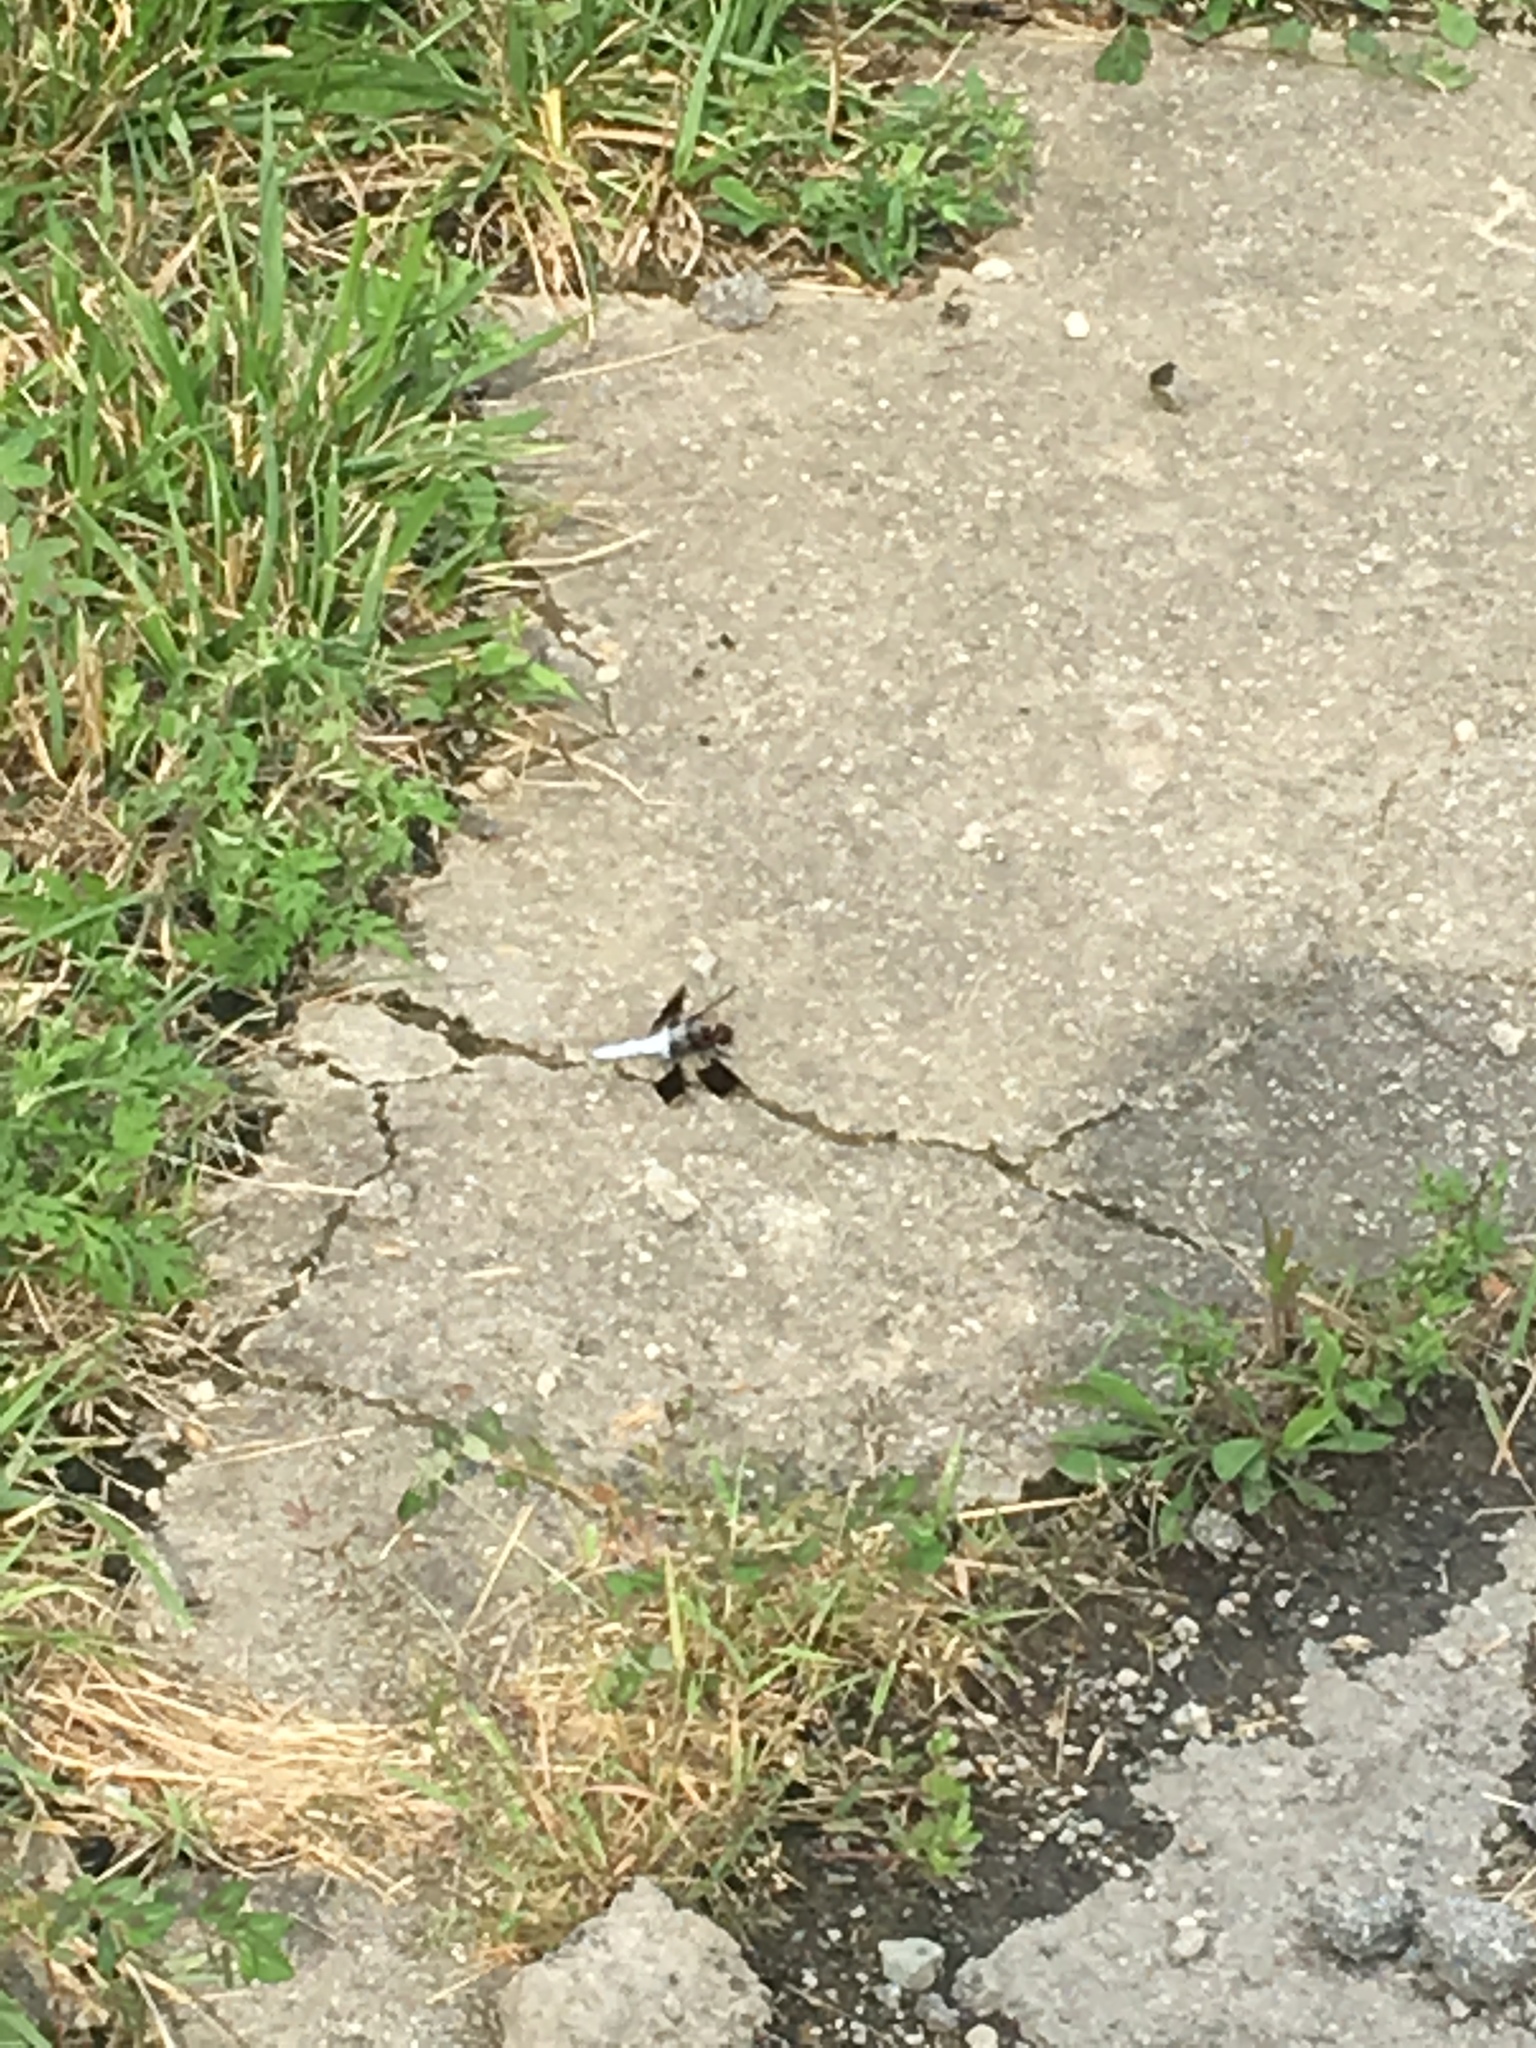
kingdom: Animalia
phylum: Arthropoda
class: Insecta
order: Odonata
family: Libellulidae
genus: Plathemis
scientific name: Plathemis lydia
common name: Common whitetail
